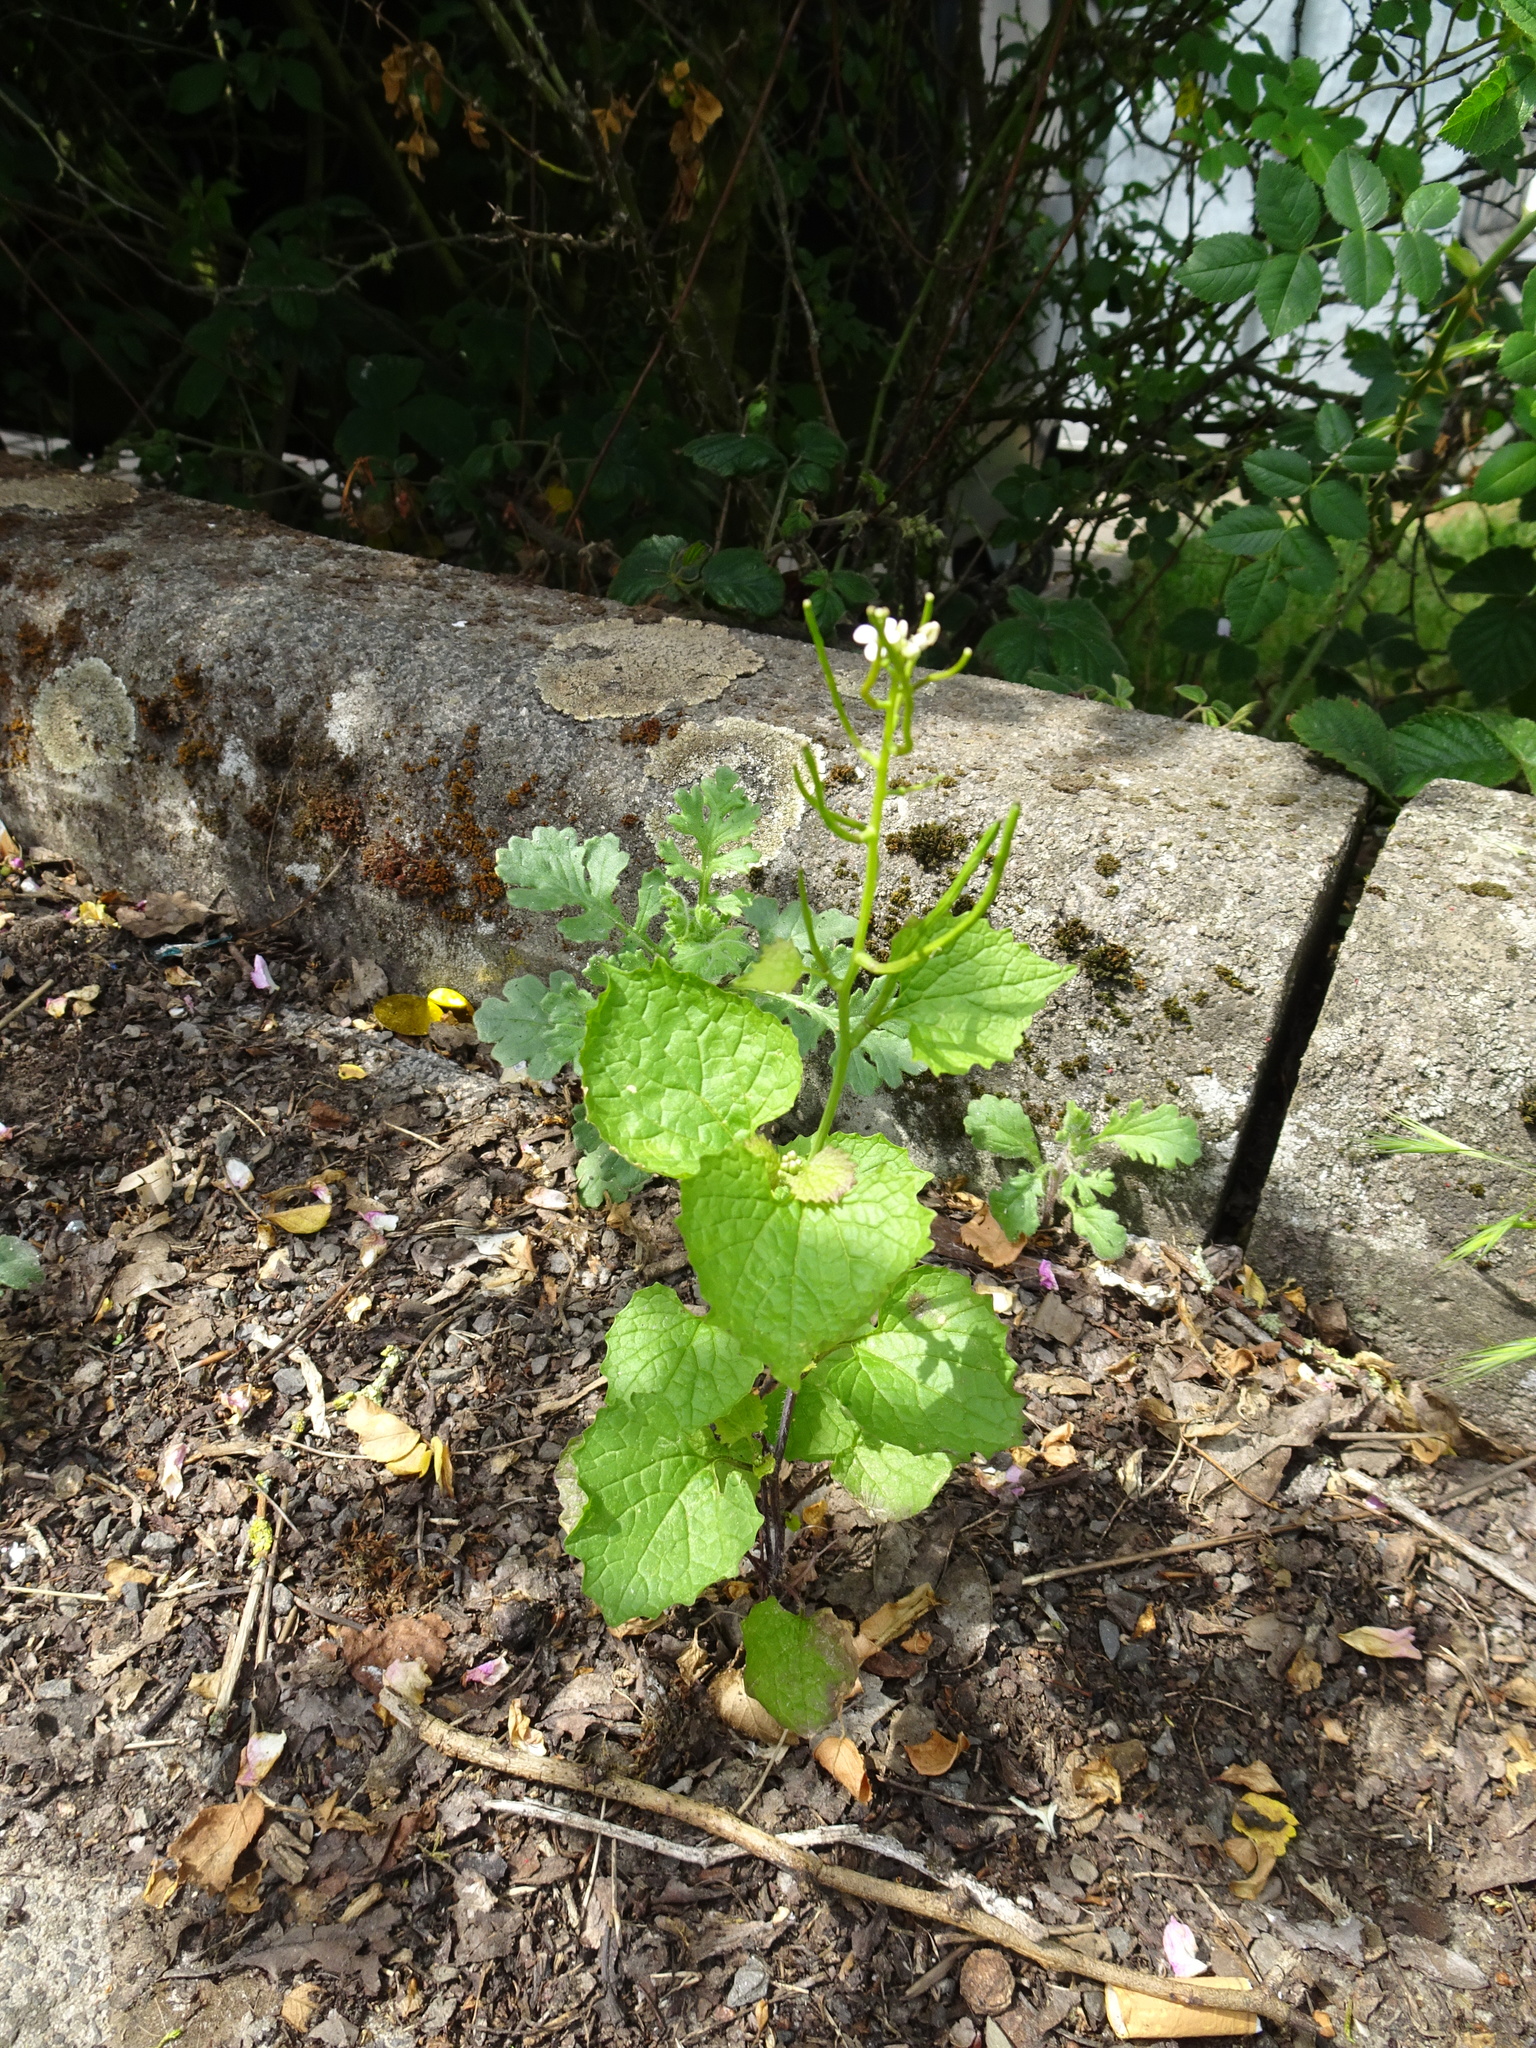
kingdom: Plantae
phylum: Tracheophyta
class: Magnoliopsida
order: Brassicales
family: Brassicaceae
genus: Alliaria
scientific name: Alliaria petiolata
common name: Garlic mustard
